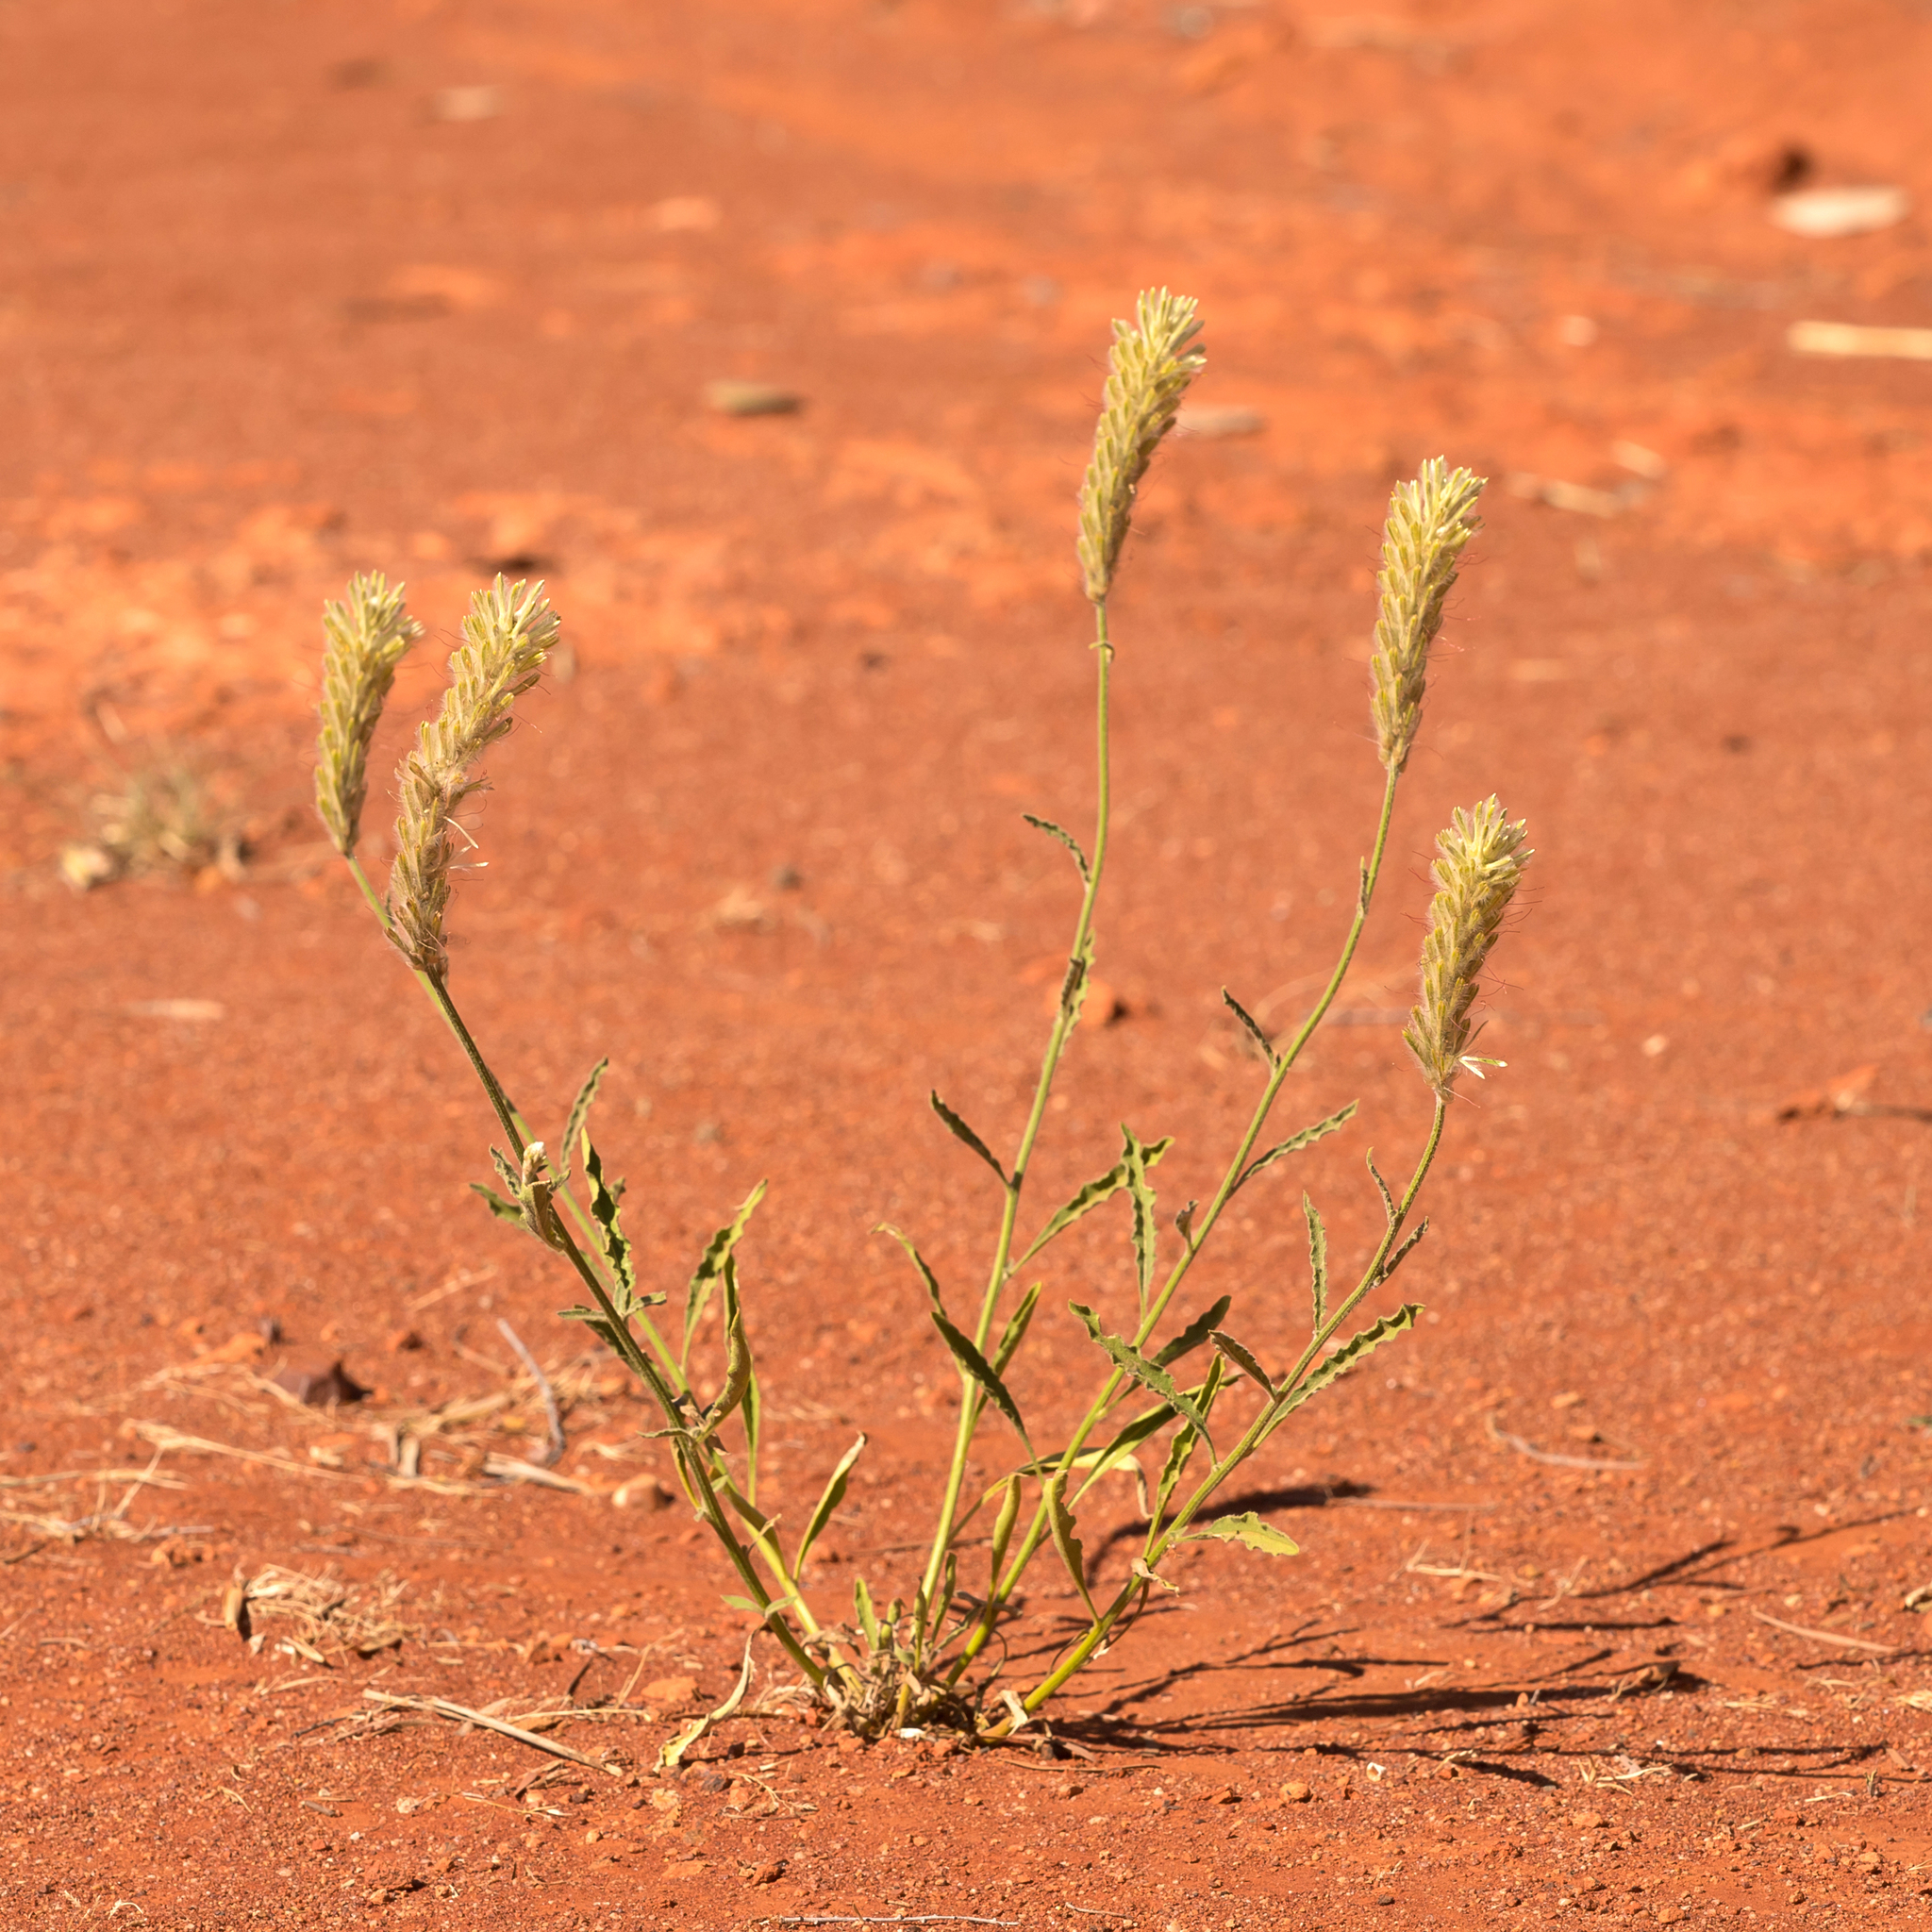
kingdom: Plantae
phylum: Tracheophyta
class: Magnoliopsida
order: Caryophyllales
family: Amaranthaceae
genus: Ptilotus
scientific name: Ptilotus polystachyus
